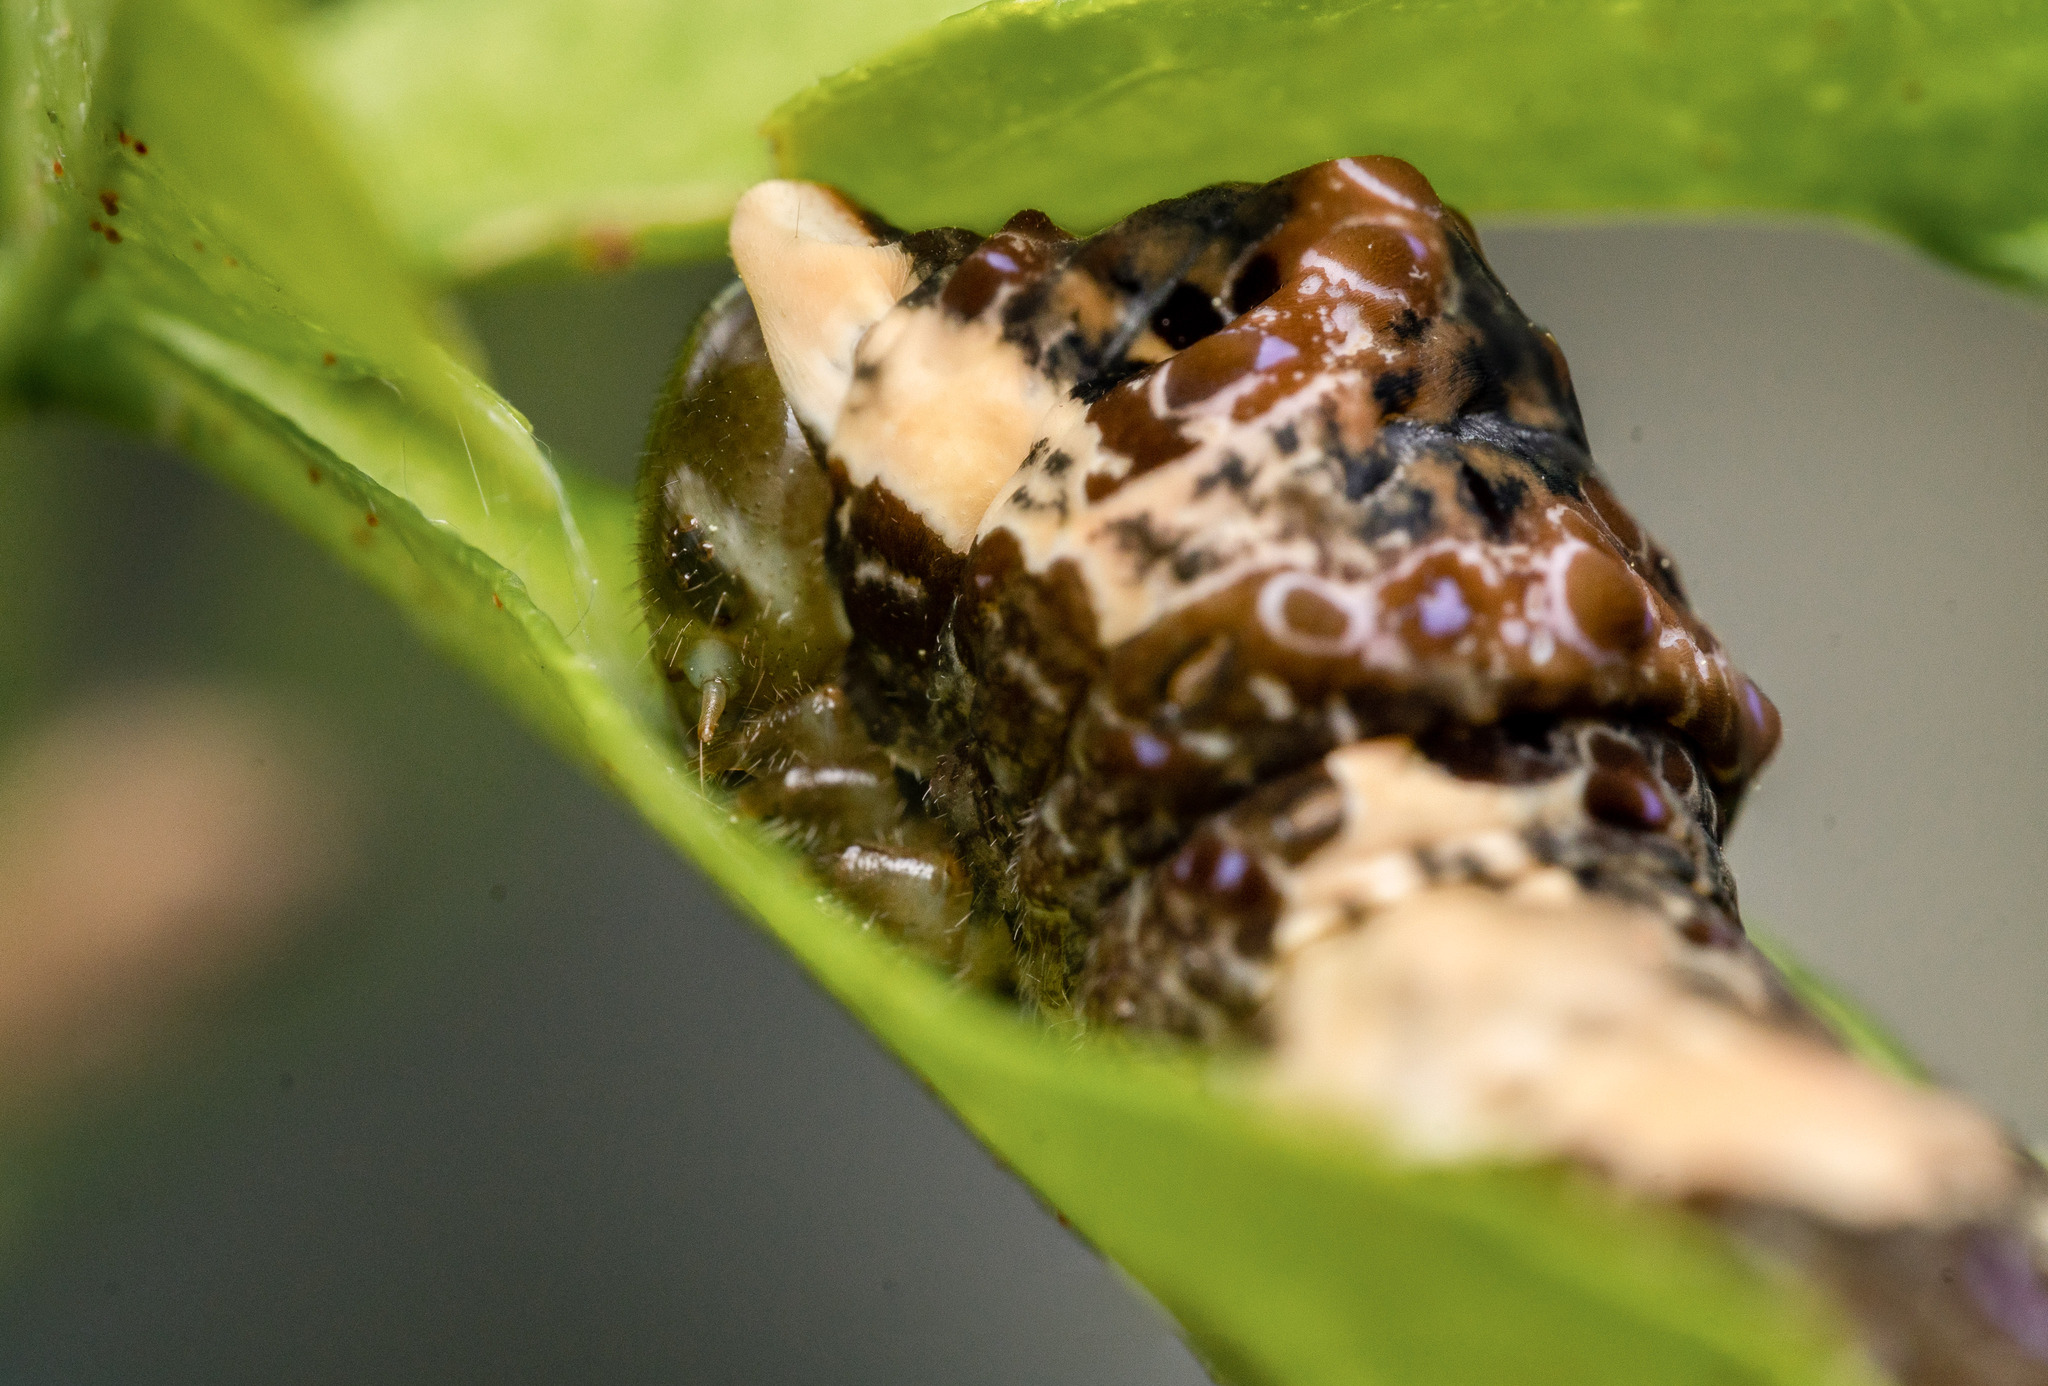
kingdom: Animalia
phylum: Arthropoda
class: Insecta
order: Lepidoptera
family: Papilionidae
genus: Papilio
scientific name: Papilio cresphontes
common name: Giant swallowtail
